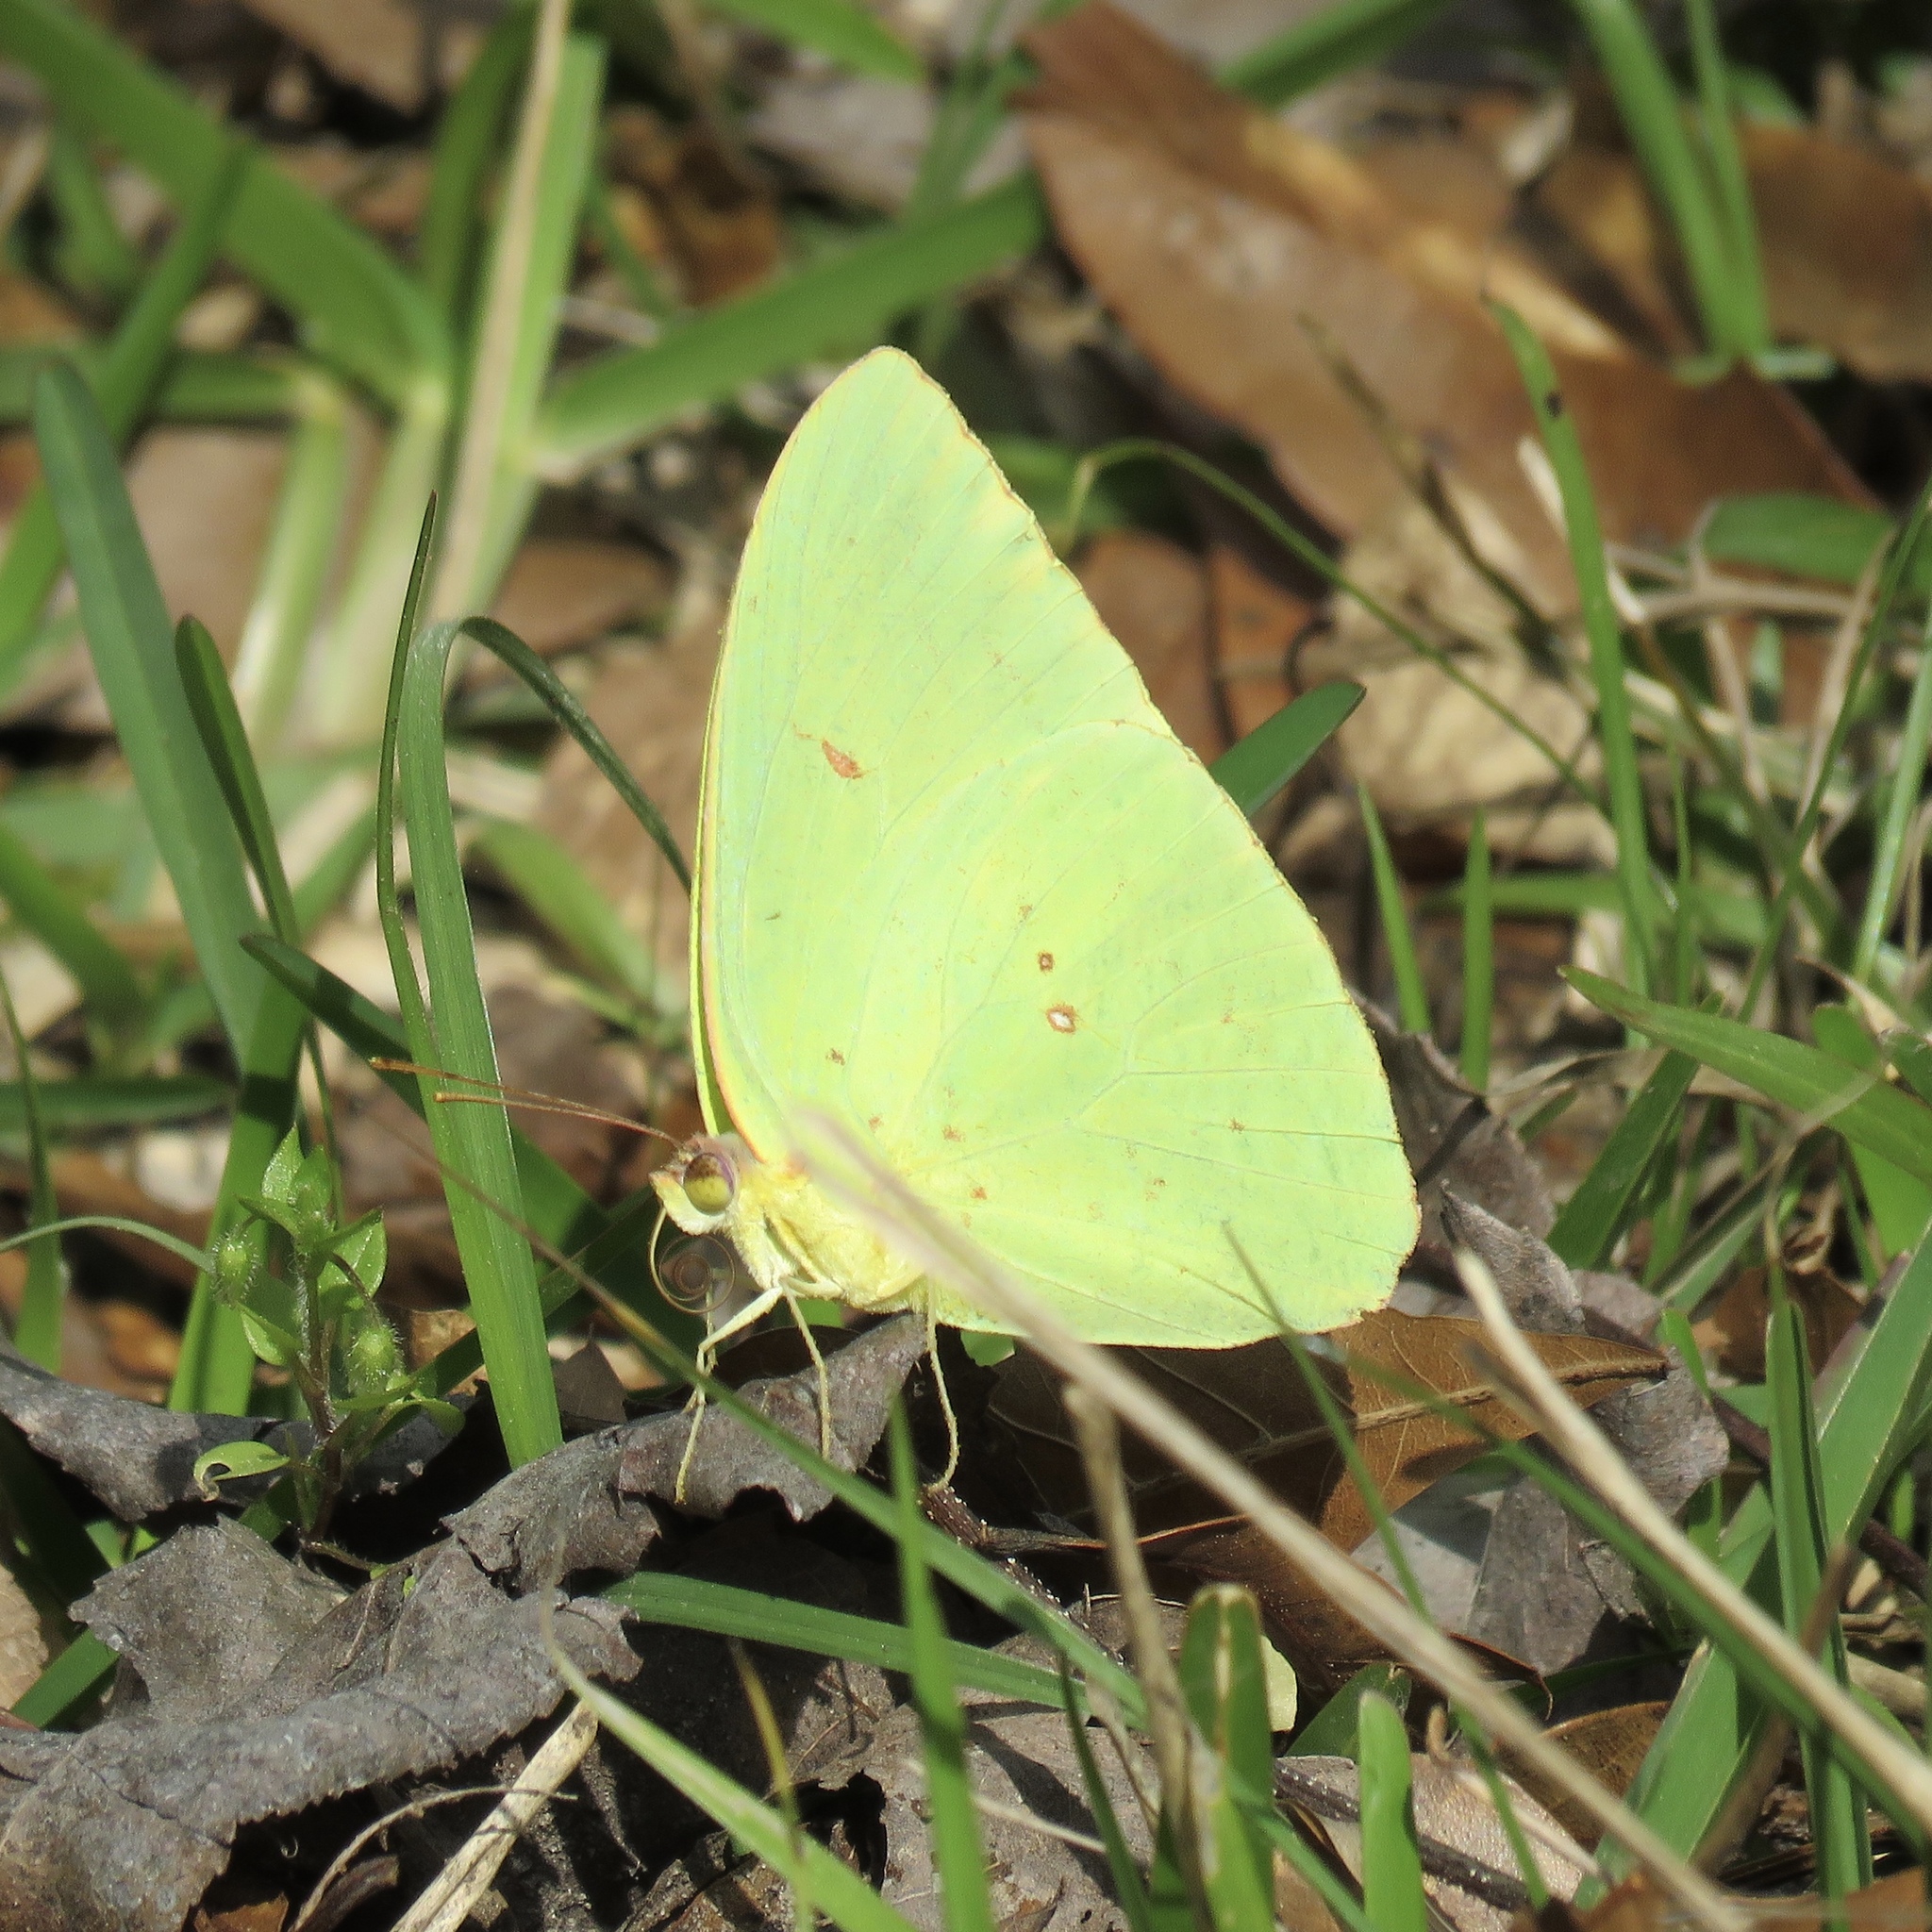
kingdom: Animalia
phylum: Arthropoda
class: Insecta
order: Lepidoptera
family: Pieridae
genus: Phoebis
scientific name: Phoebis sennae
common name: Cloudless sulphur
